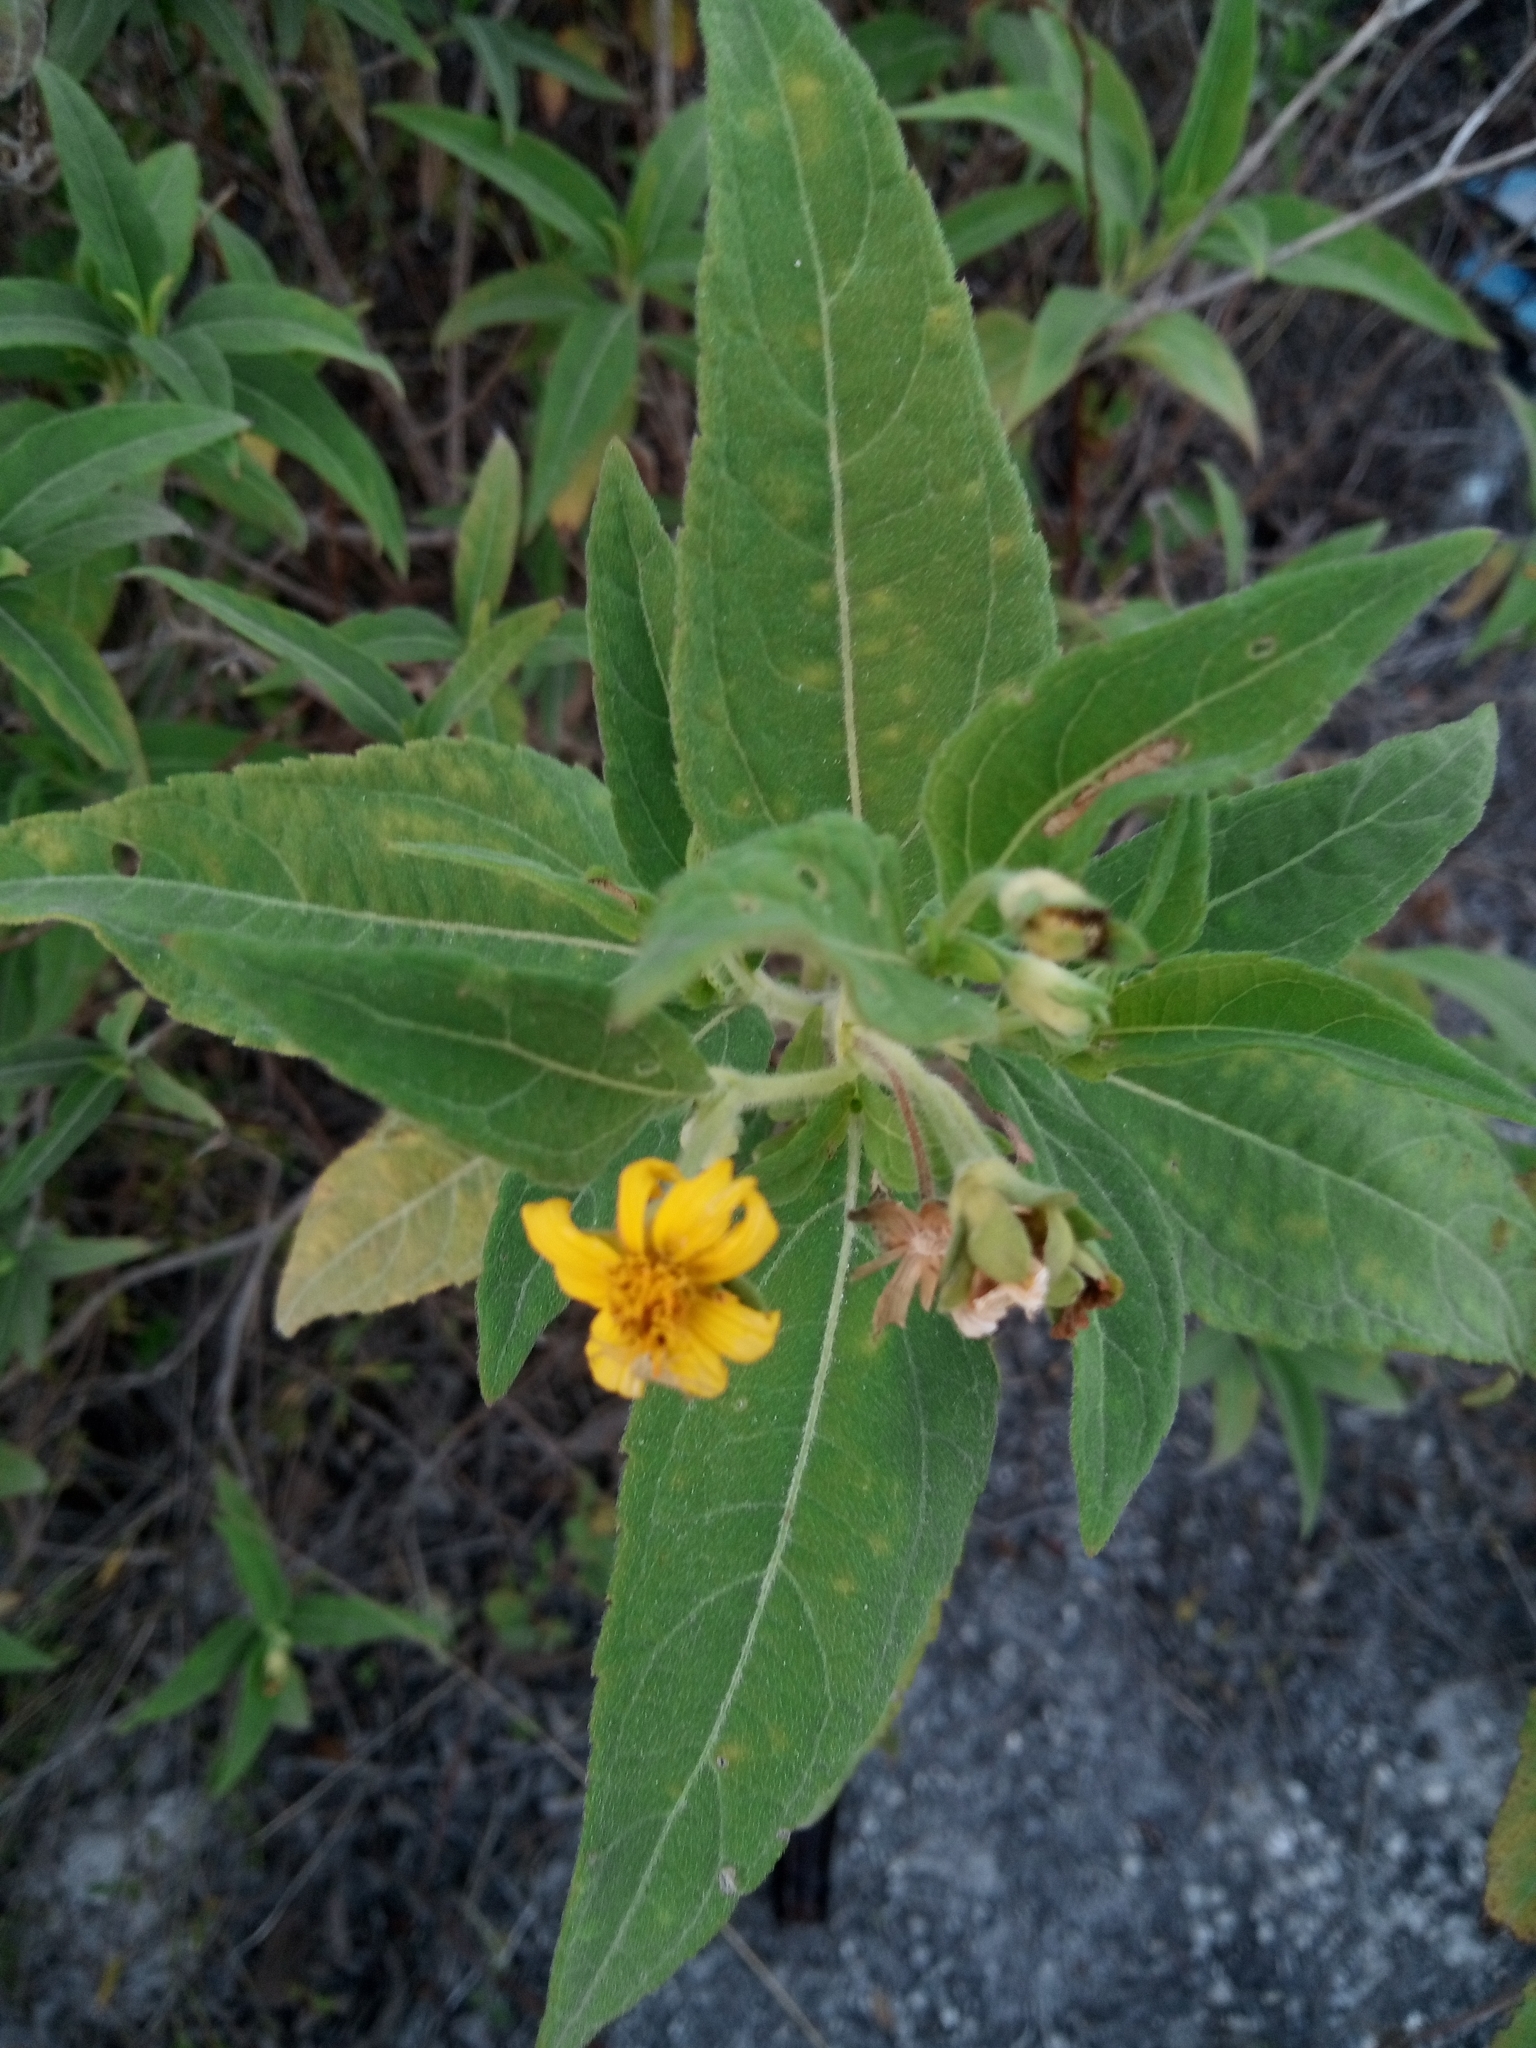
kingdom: Plantae
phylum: Tracheophyta
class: Magnoliopsida
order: Asterales
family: Asteraceae
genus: Wedelia
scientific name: Wedelia bahamensis
